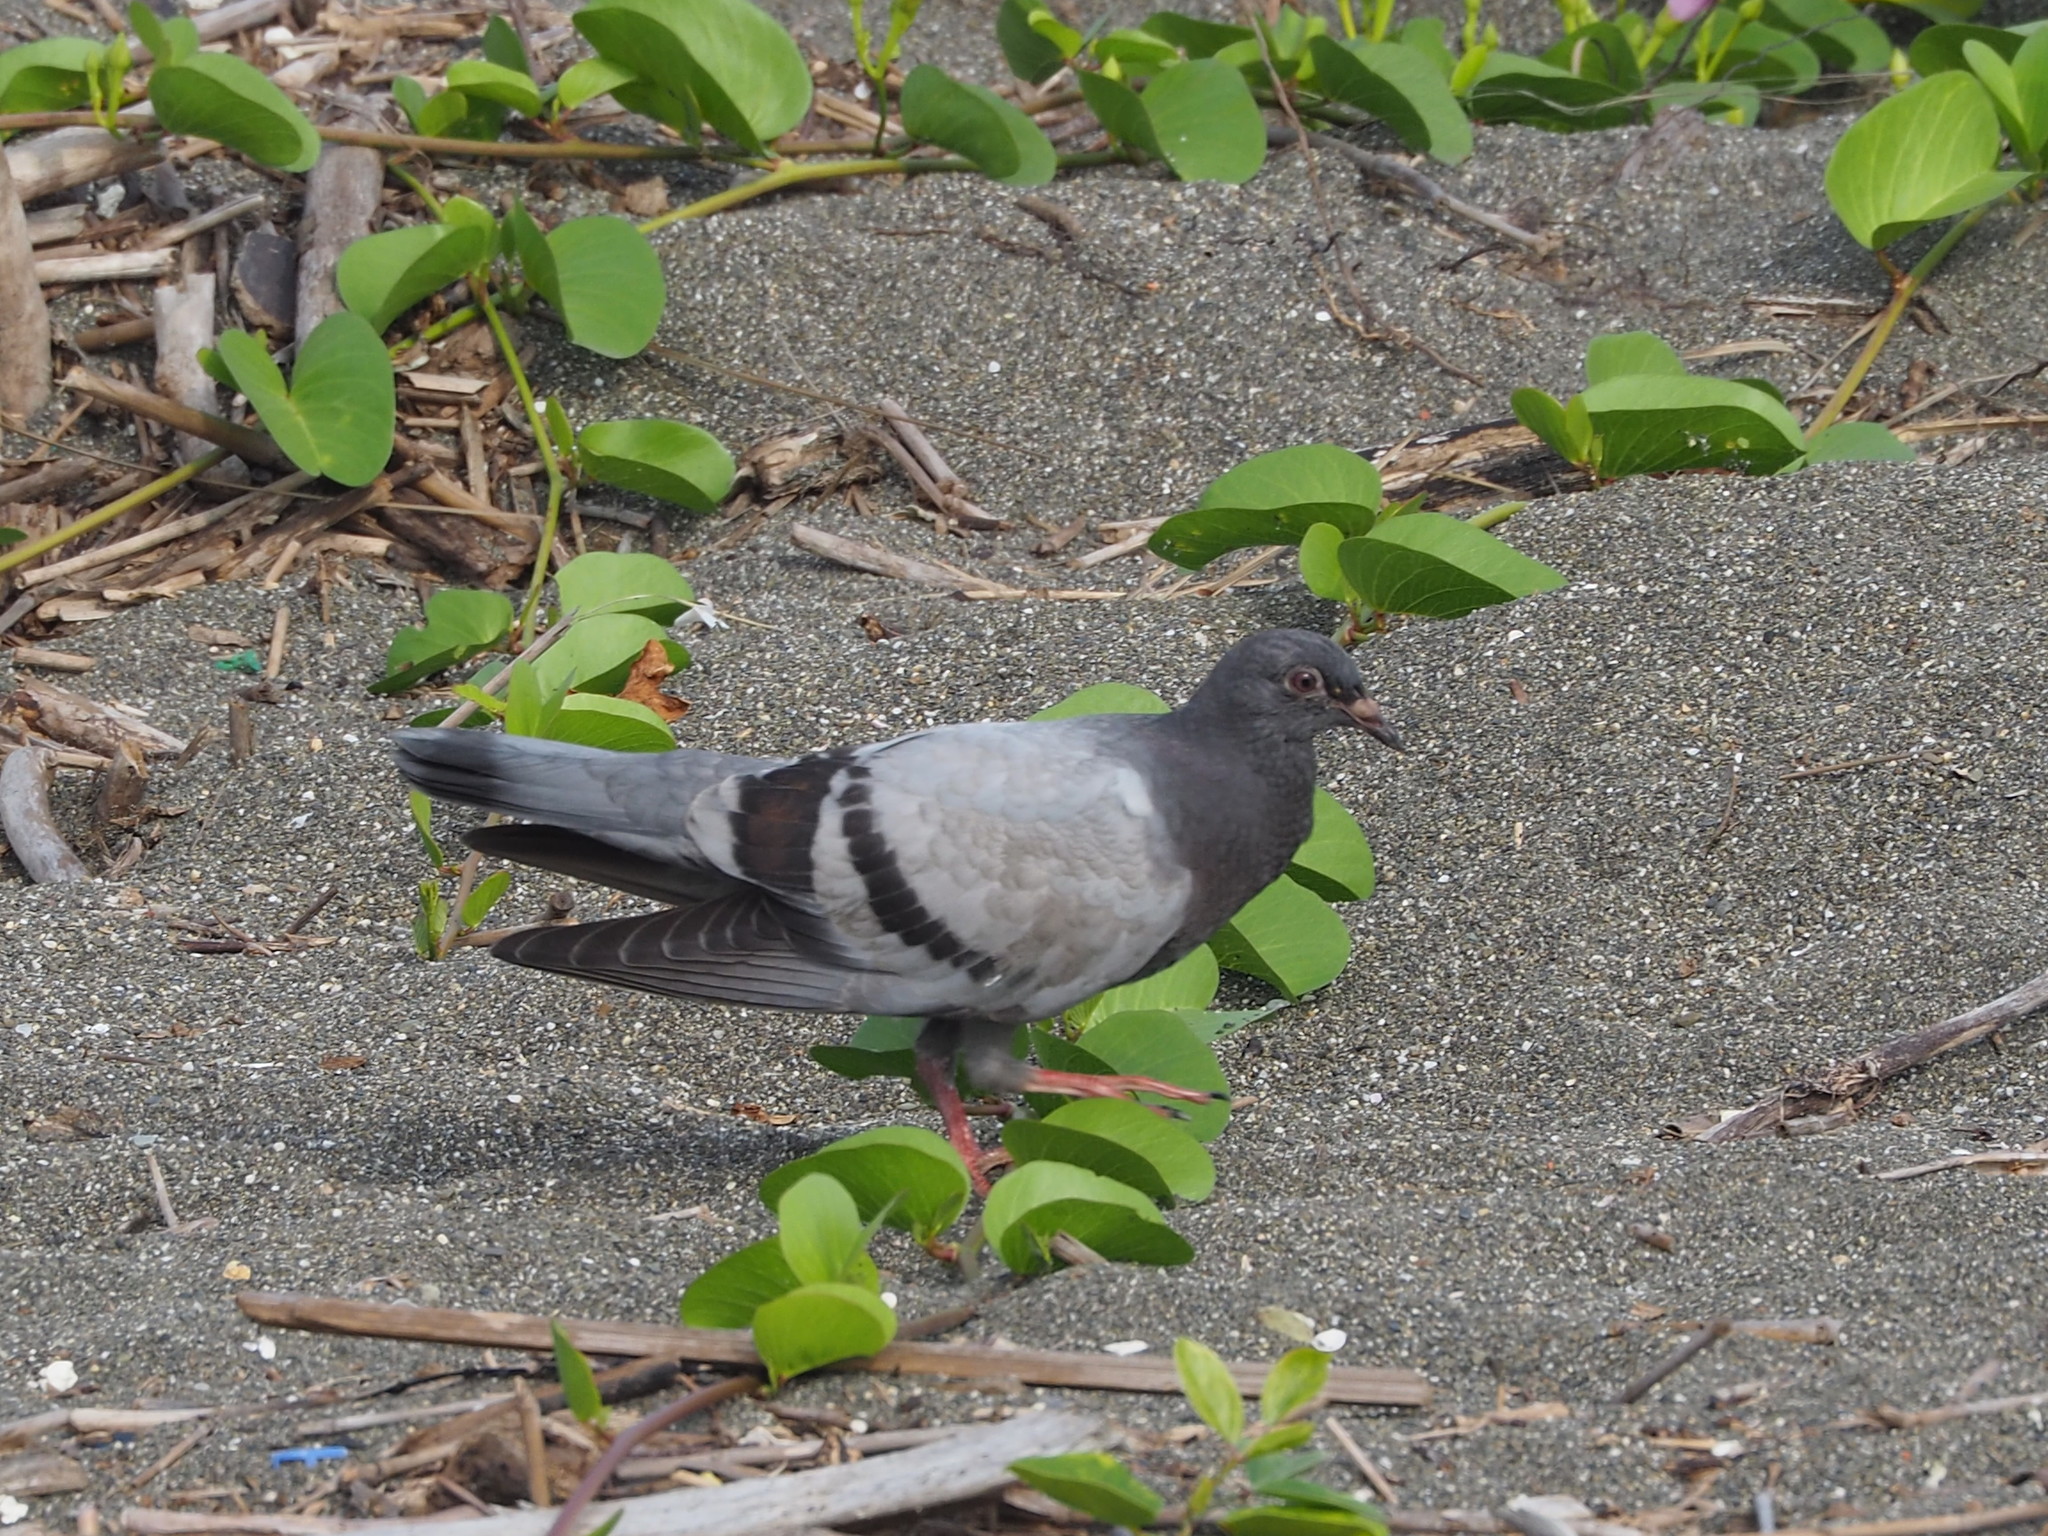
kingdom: Animalia
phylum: Chordata
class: Aves
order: Columbiformes
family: Columbidae
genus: Columba
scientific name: Columba livia
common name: Rock pigeon
